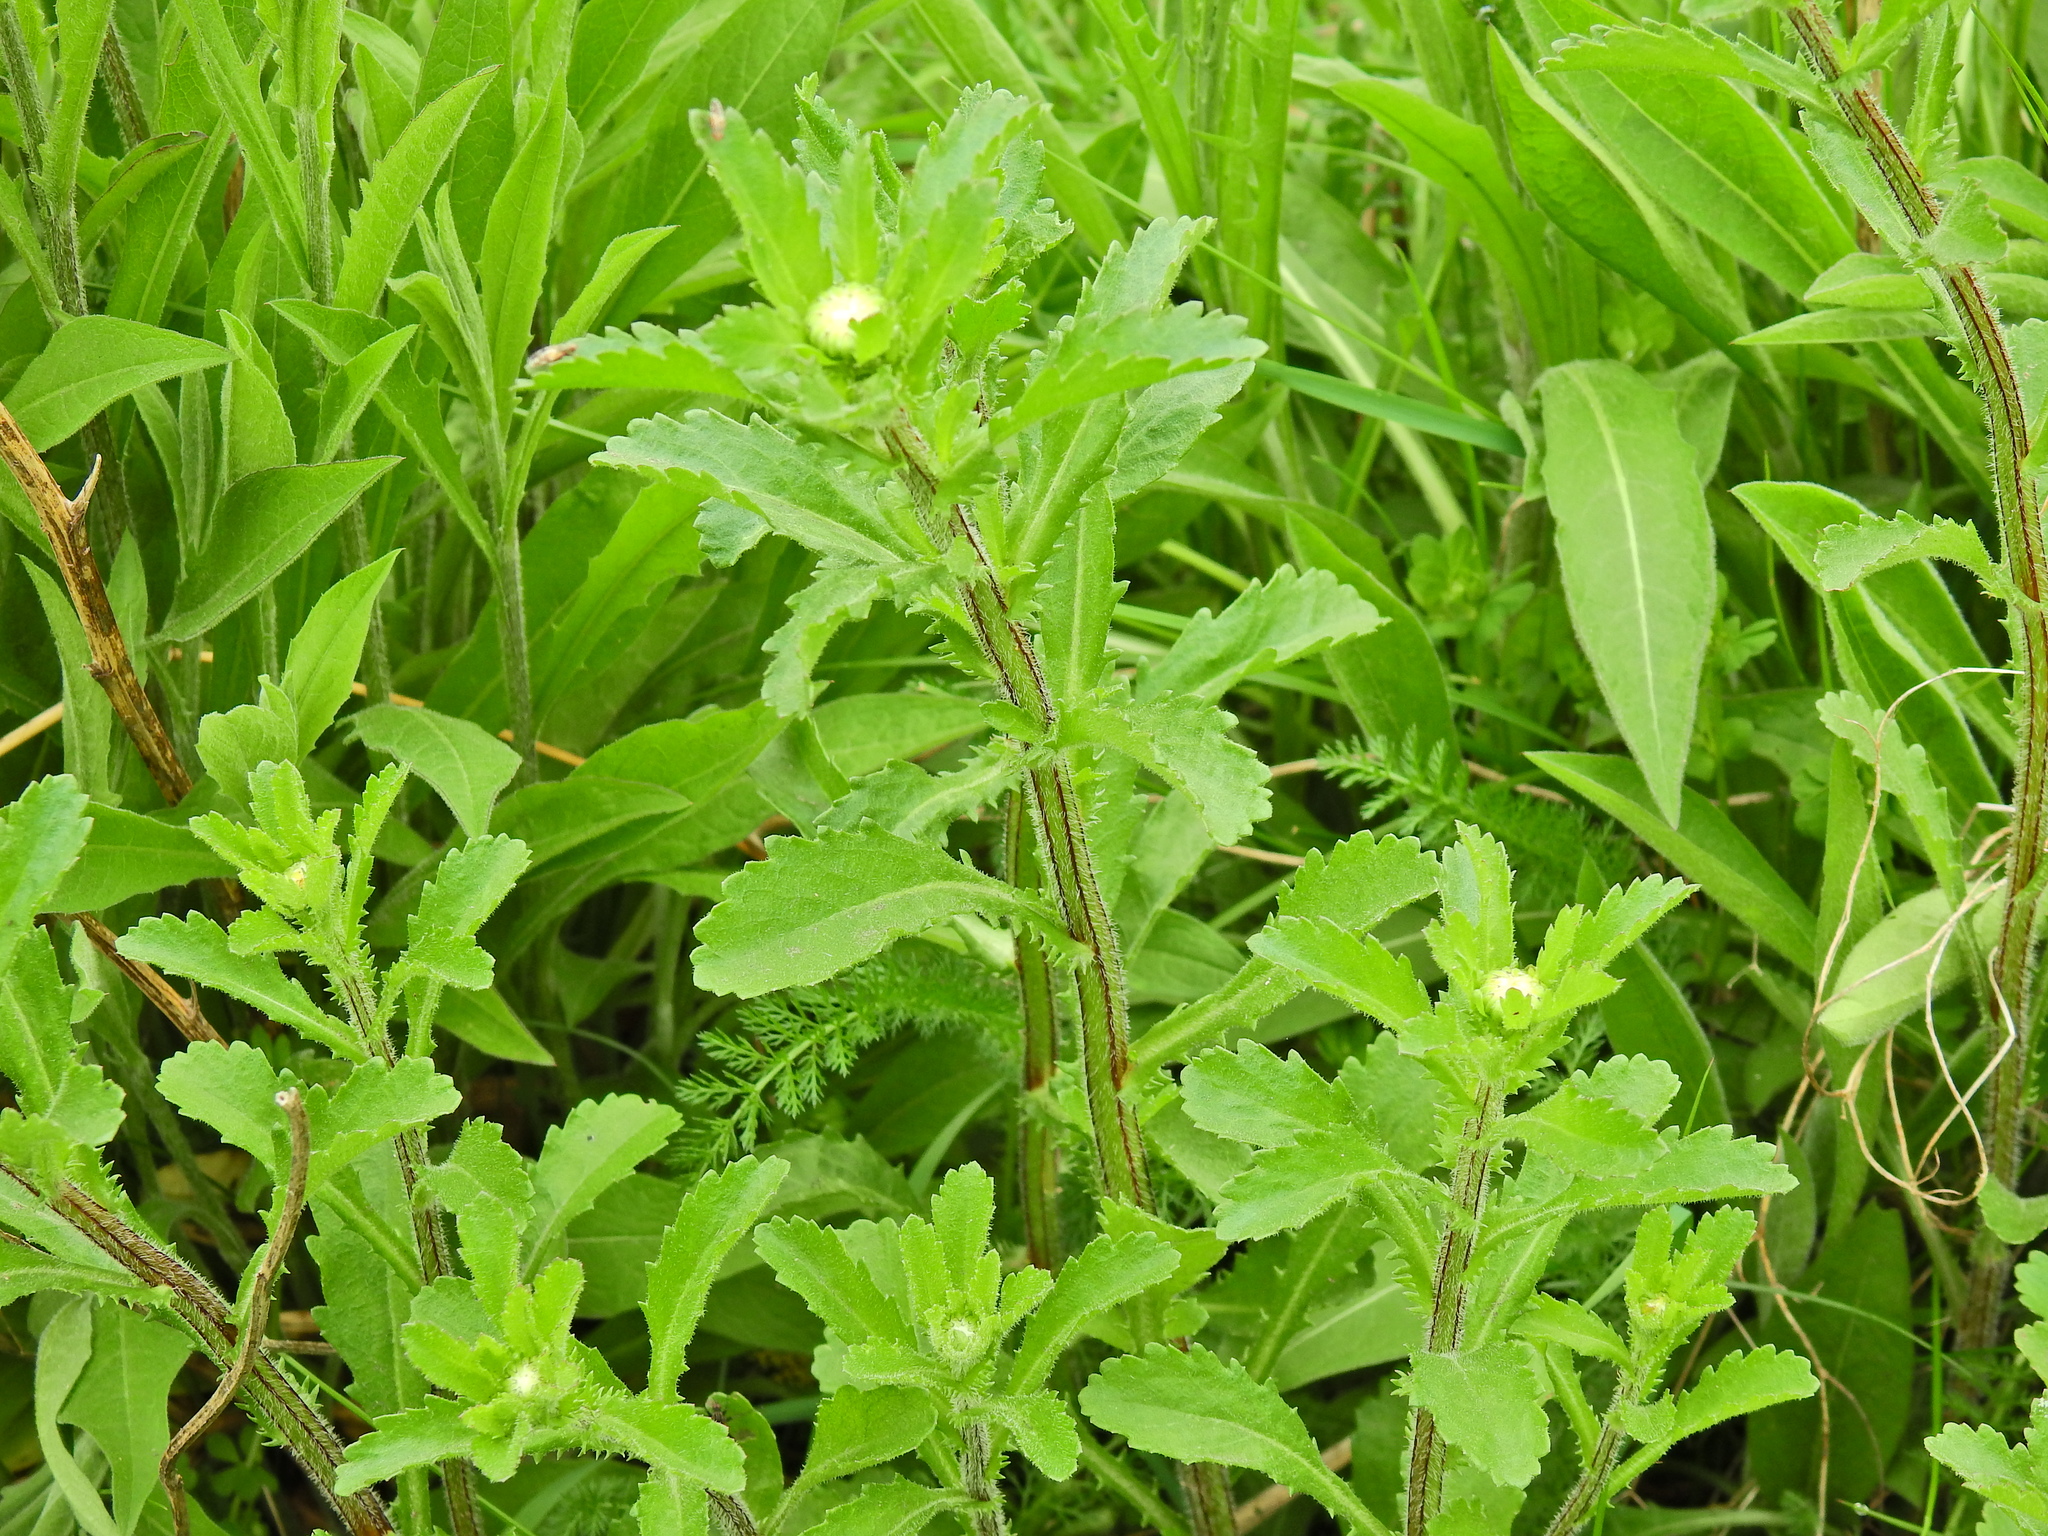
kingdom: Plantae
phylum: Tracheophyta
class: Magnoliopsida
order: Asterales
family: Asteraceae
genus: Leucanthemum
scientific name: Leucanthemum vulgare
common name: Oxeye daisy
